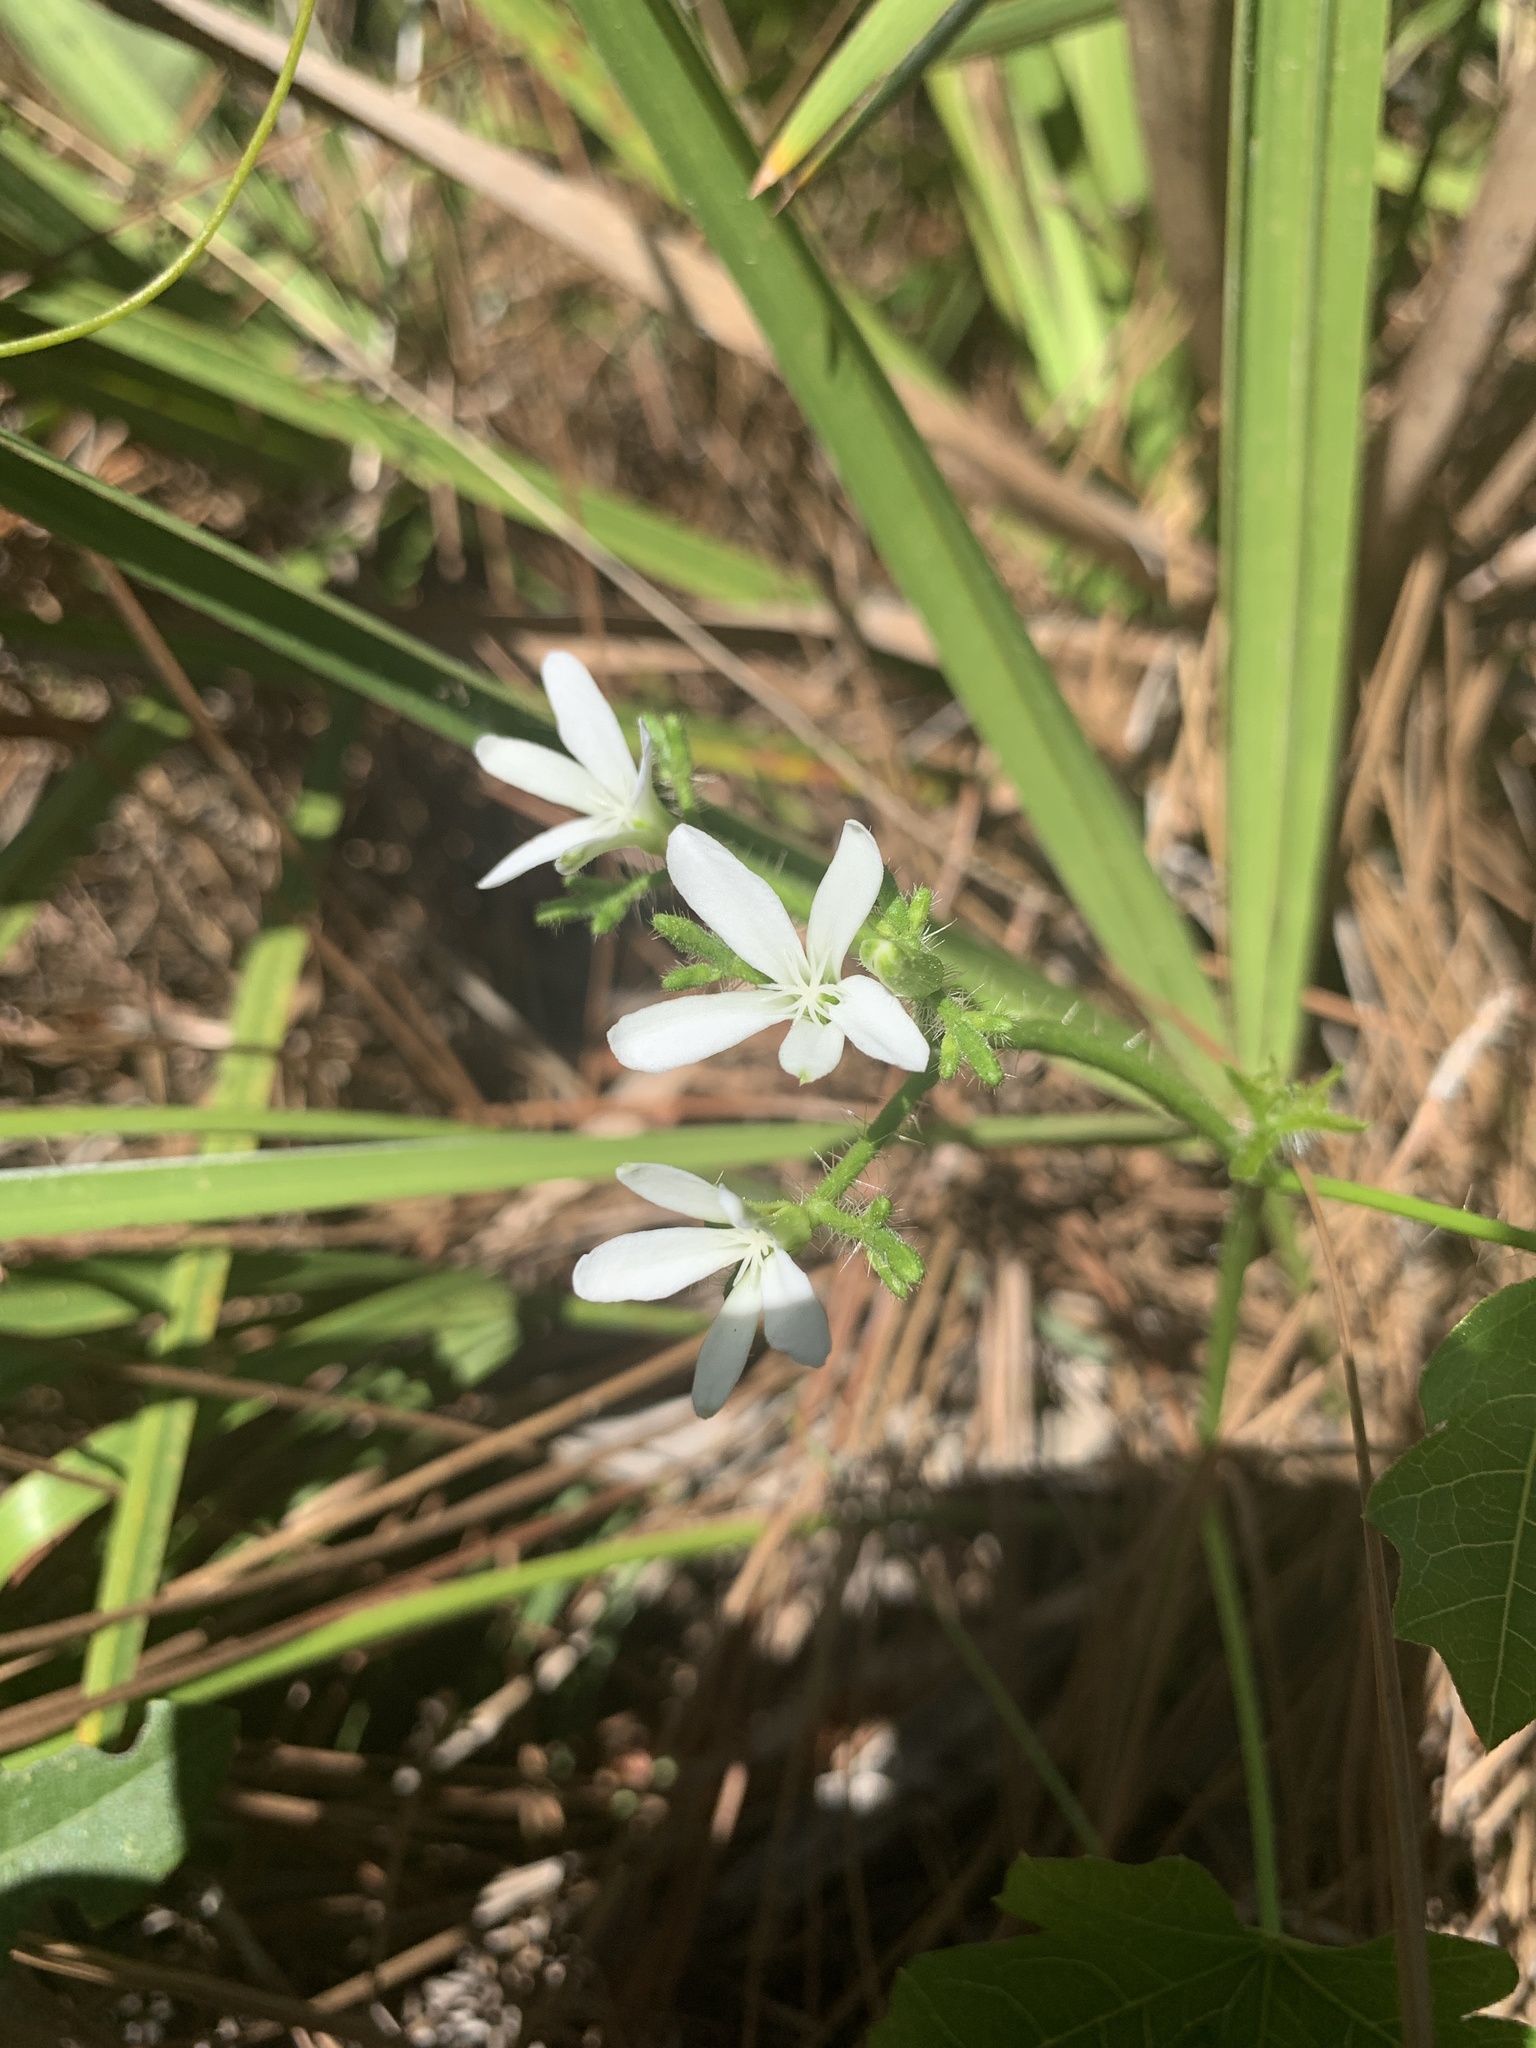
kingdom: Plantae
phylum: Tracheophyta
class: Magnoliopsida
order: Malpighiales
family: Euphorbiaceae
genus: Cnidoscolus
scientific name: Cnidoscolus stimulosus
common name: Bull-nettle
